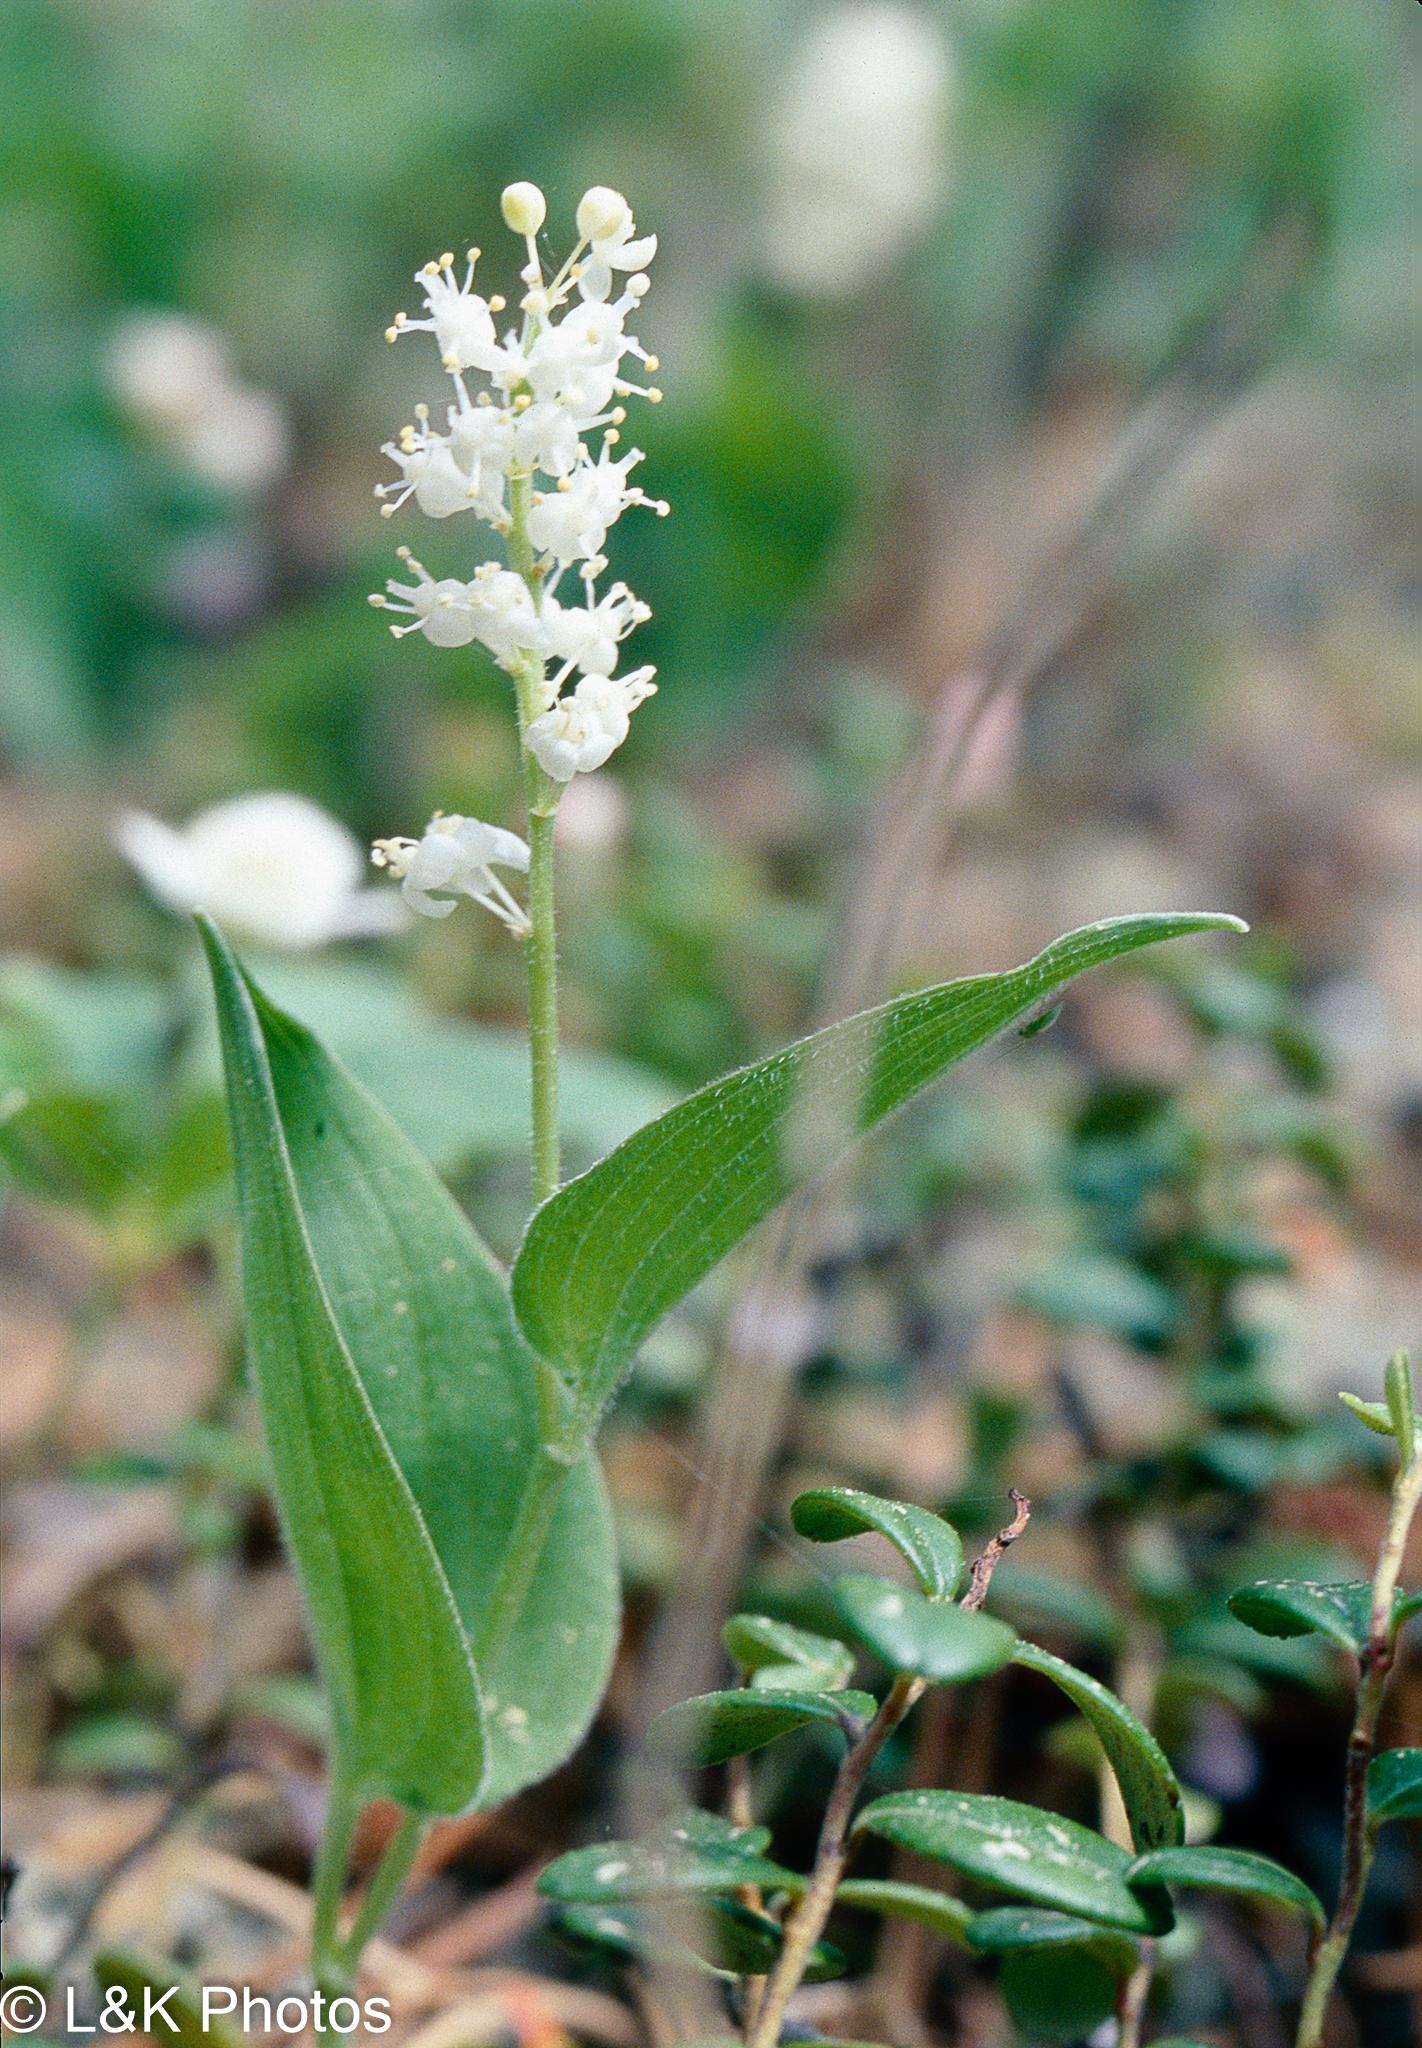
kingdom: Plantae
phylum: Tracheophyta
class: Liliopsida
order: Asparagales
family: Asparagaceae
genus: Maianthemum
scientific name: Maianthemum canadense
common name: False lily-of-the-valley
